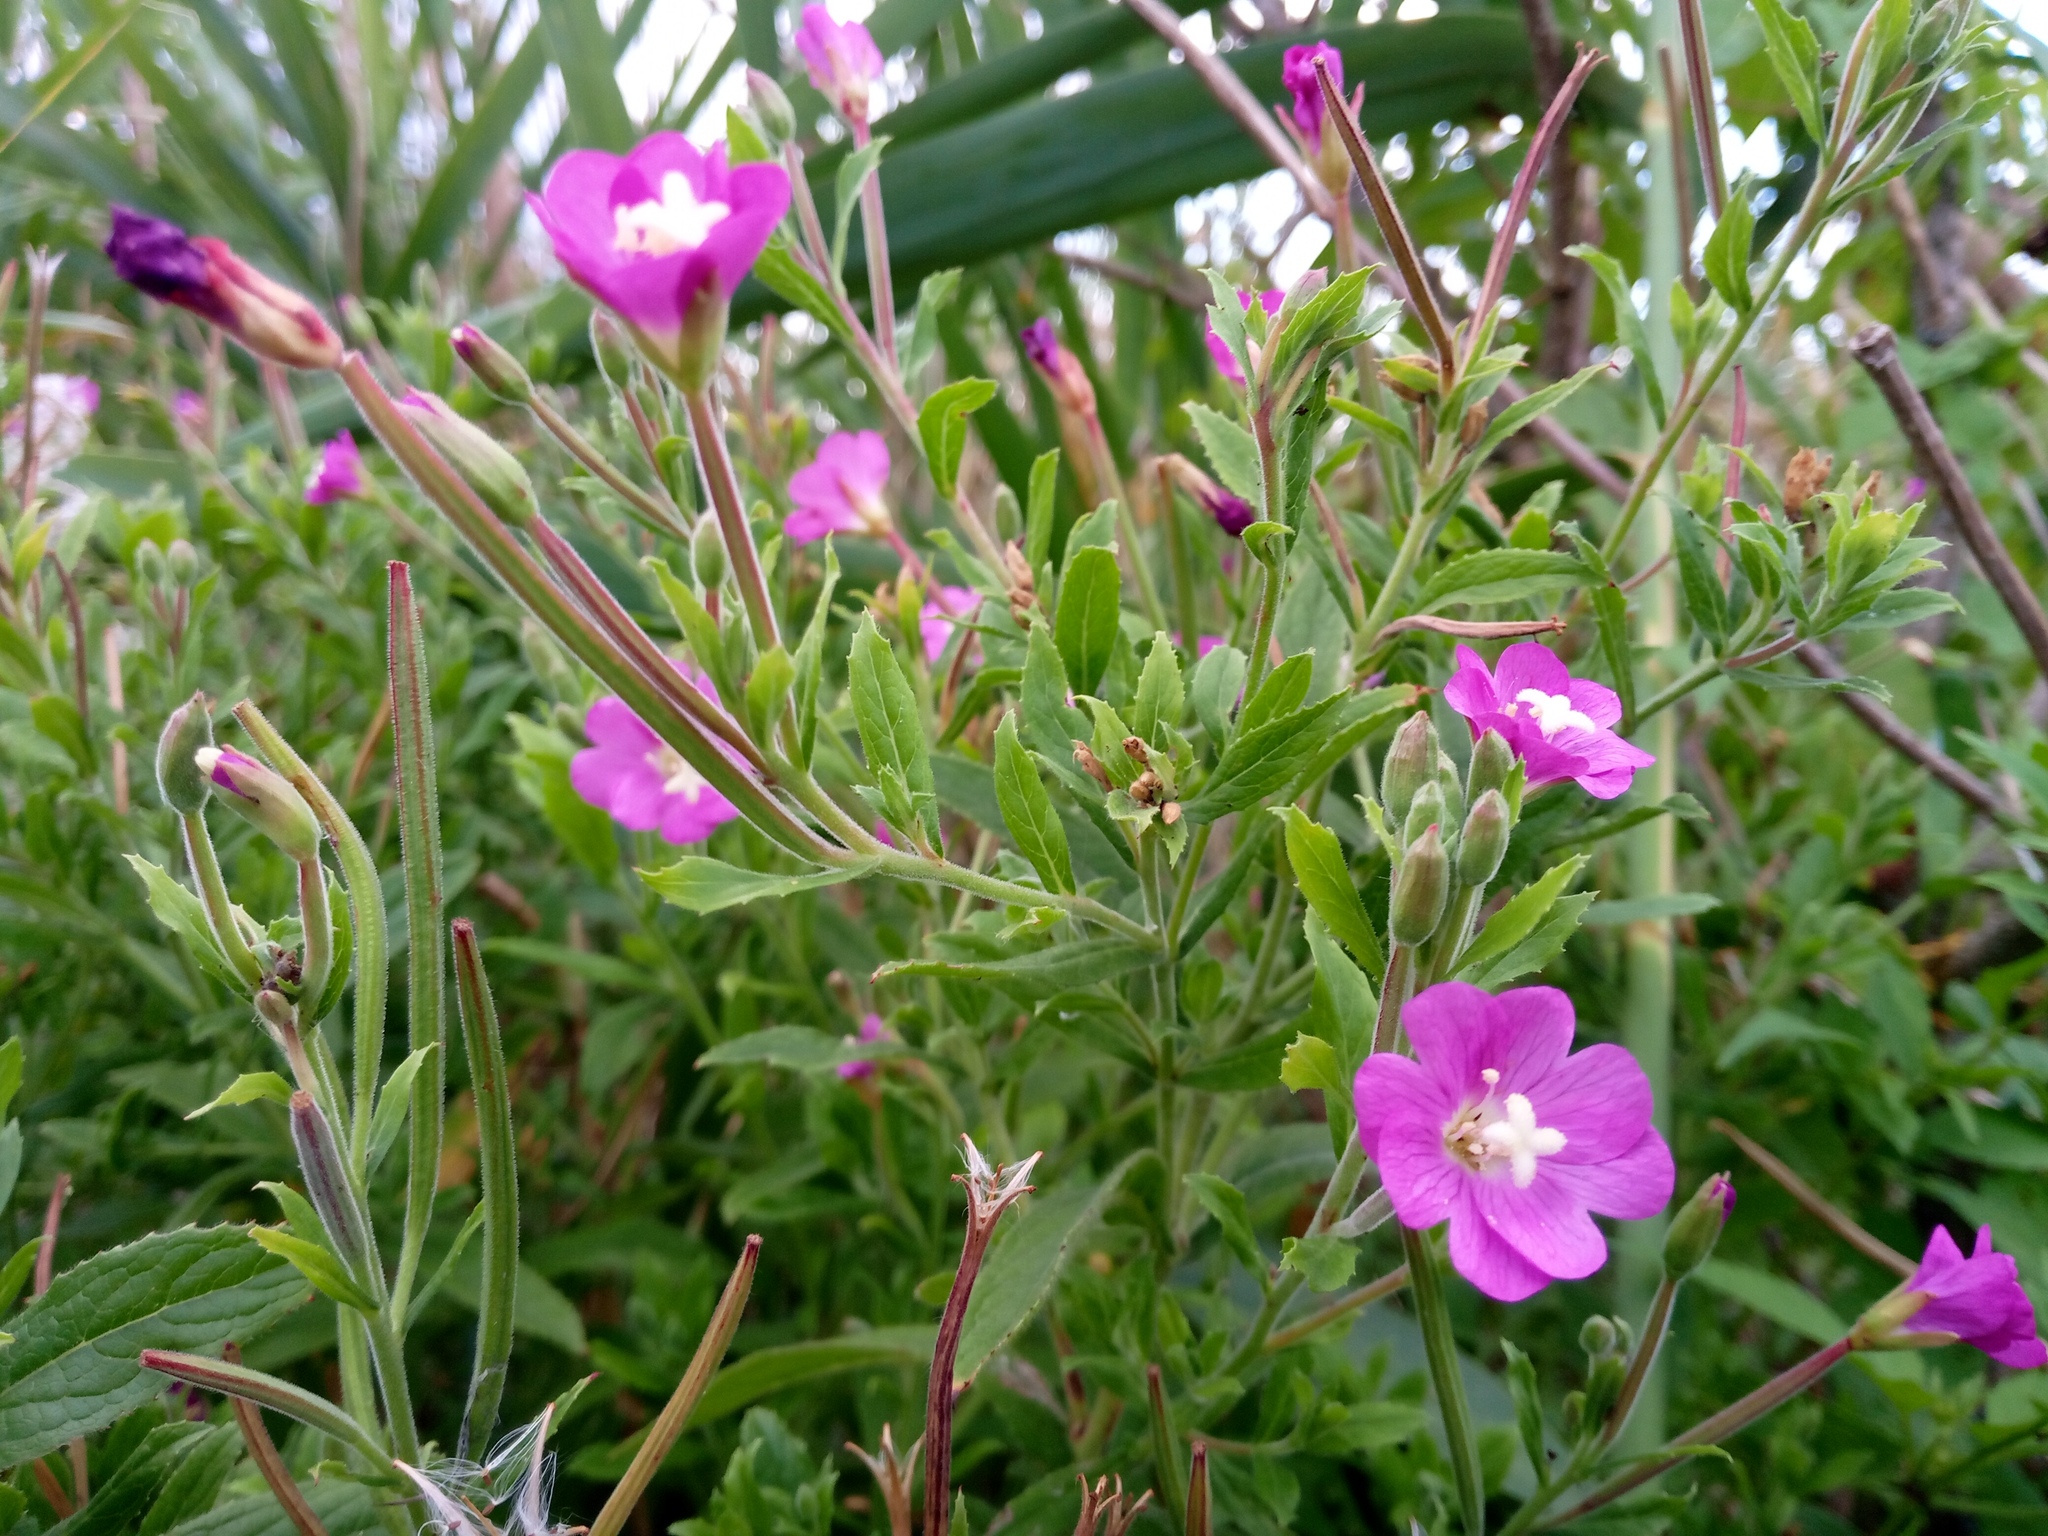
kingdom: Plantae
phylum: Tracheophyta
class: Magnoliopsida
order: Myrtales
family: Onagraceae
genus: Epilobium
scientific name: Epilobium hirsutum
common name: Great willowherb
